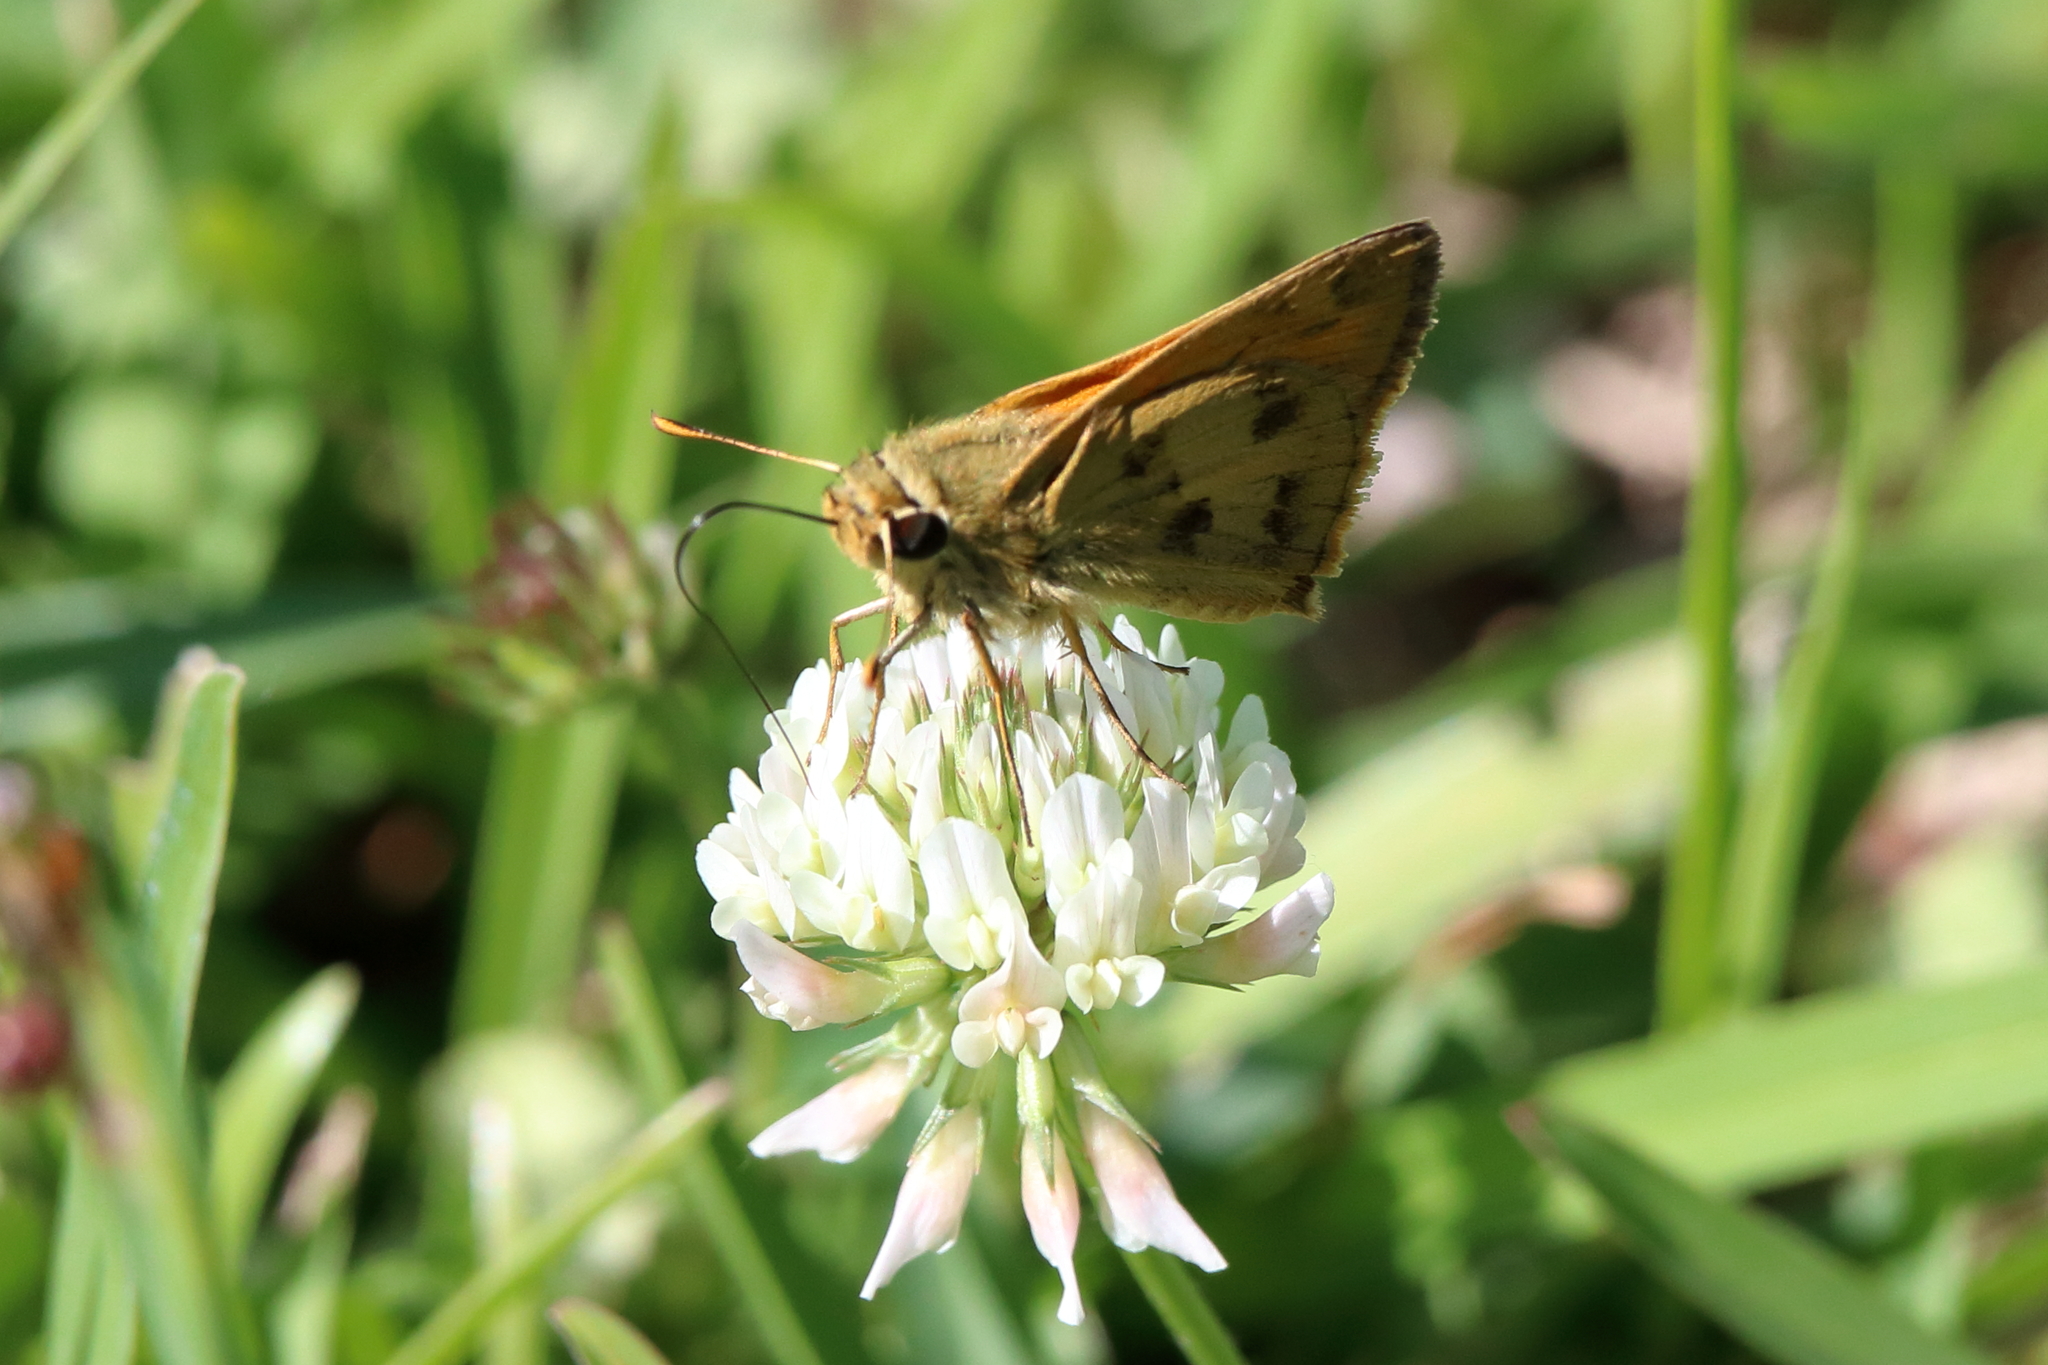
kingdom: Animalia
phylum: Arthropoda
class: Insecta
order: Lepidoptera
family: Hesperiidae
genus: Polites
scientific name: Polites vibex
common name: Whirlabout
